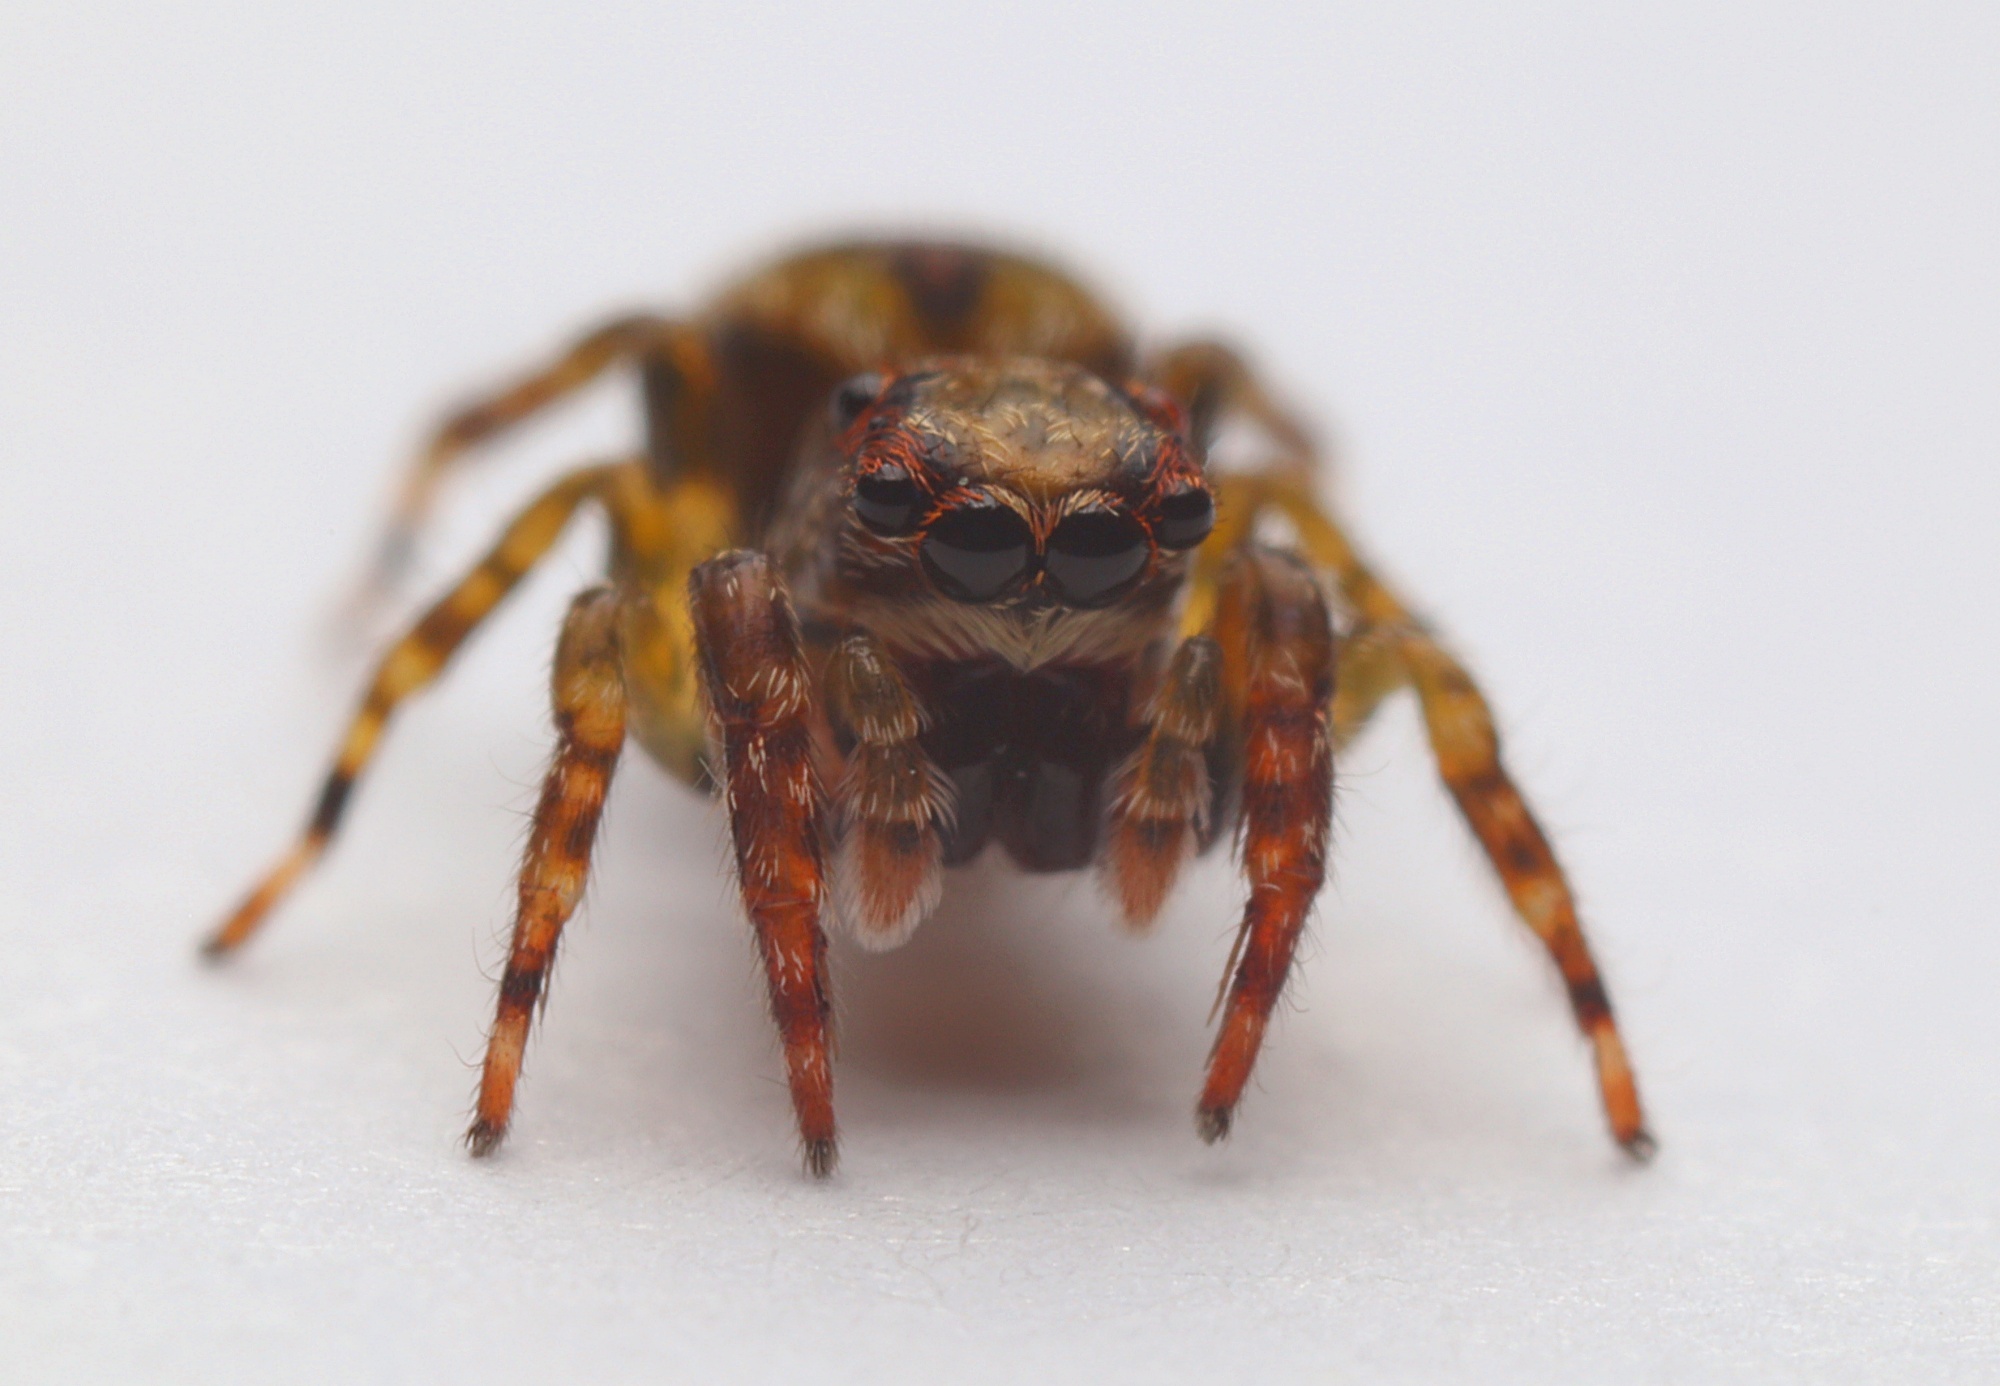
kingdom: Animalia
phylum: Arthropoda
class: Arachnida
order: Araneae
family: Salticidae
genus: Hinewaia
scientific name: Hinewaia embolica
